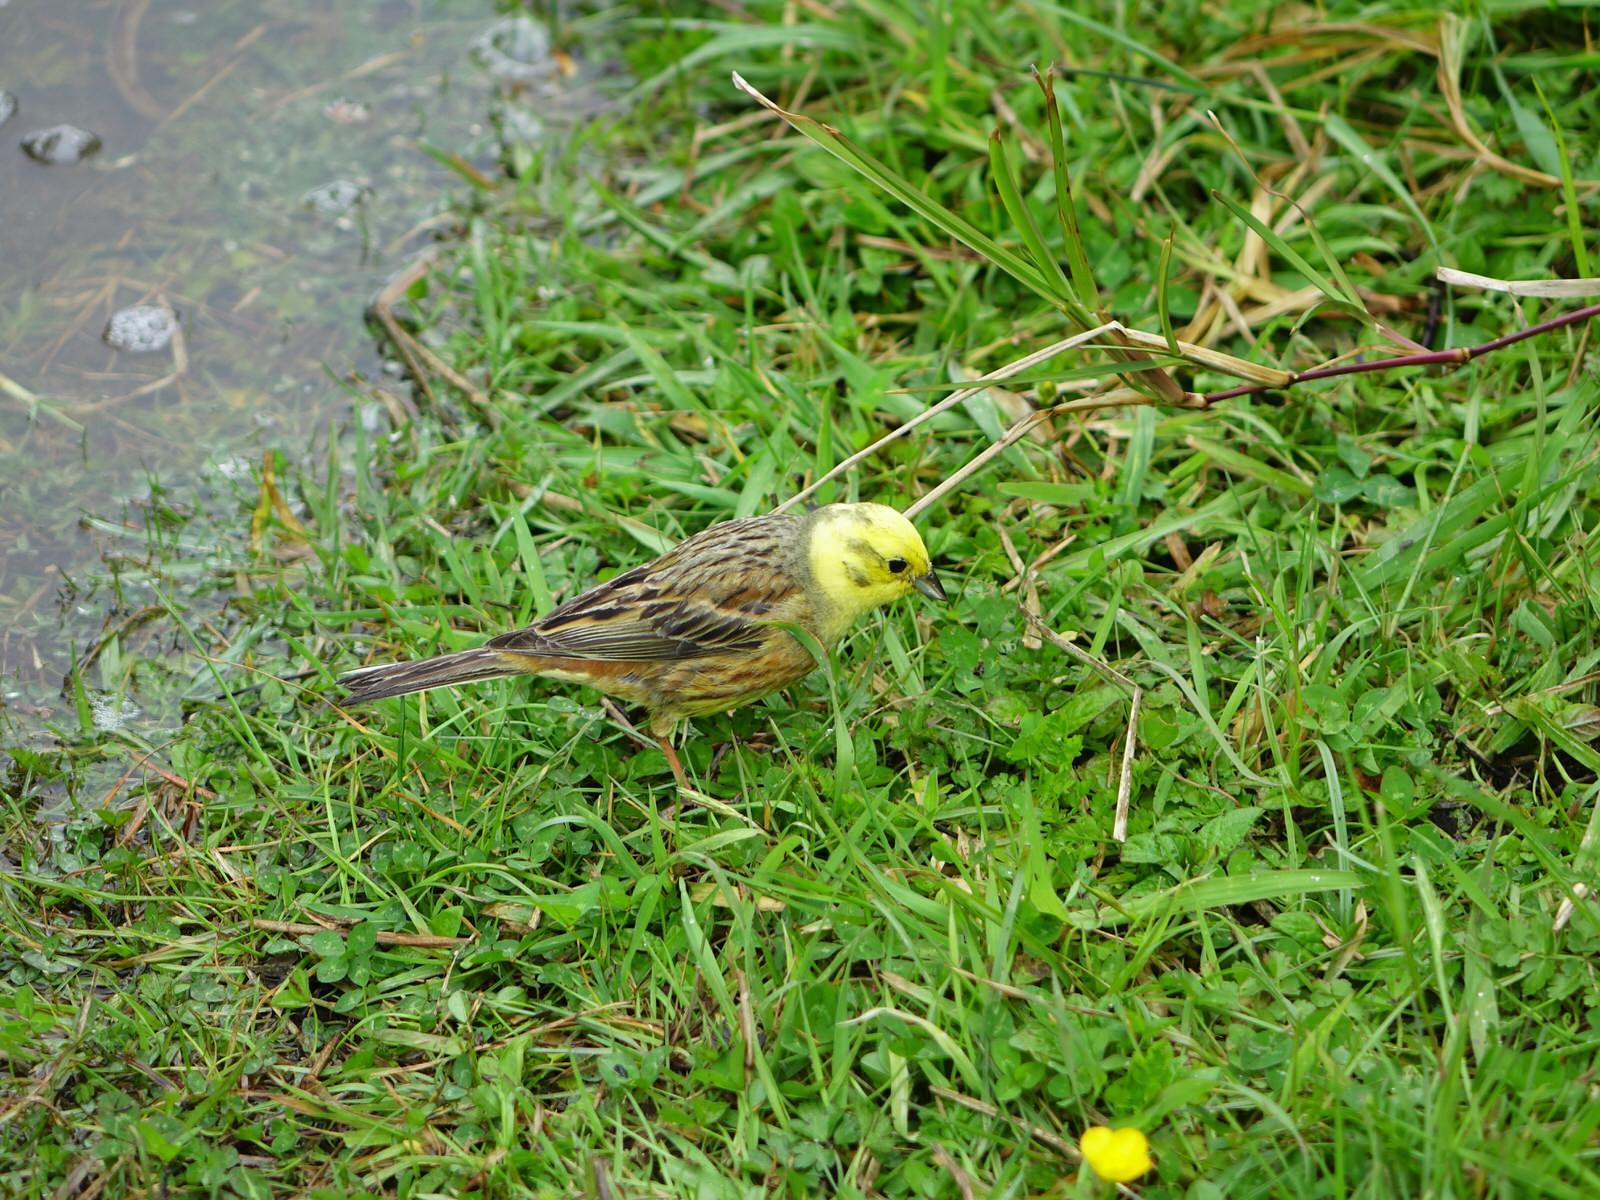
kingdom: Animalia
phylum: Chordata
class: Aves
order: Passeriformes
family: Emberizidae
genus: Emberiza
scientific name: Emberiza citrinella
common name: Yellowhammer
